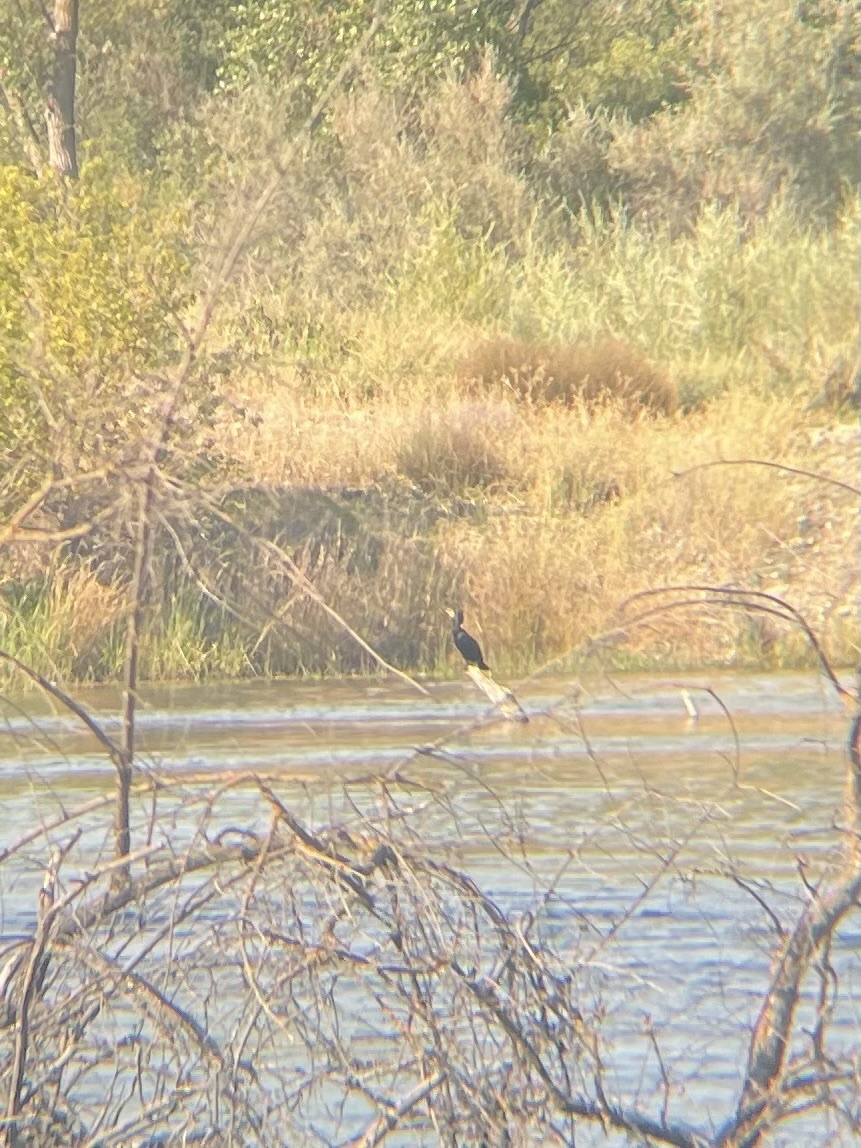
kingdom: Animalia
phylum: Chordata
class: Aves
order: Suliformes
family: Phalacrocoracidae
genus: Phalacrocorax
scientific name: Phalacrocorax auritus
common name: Double-crested cormorant
